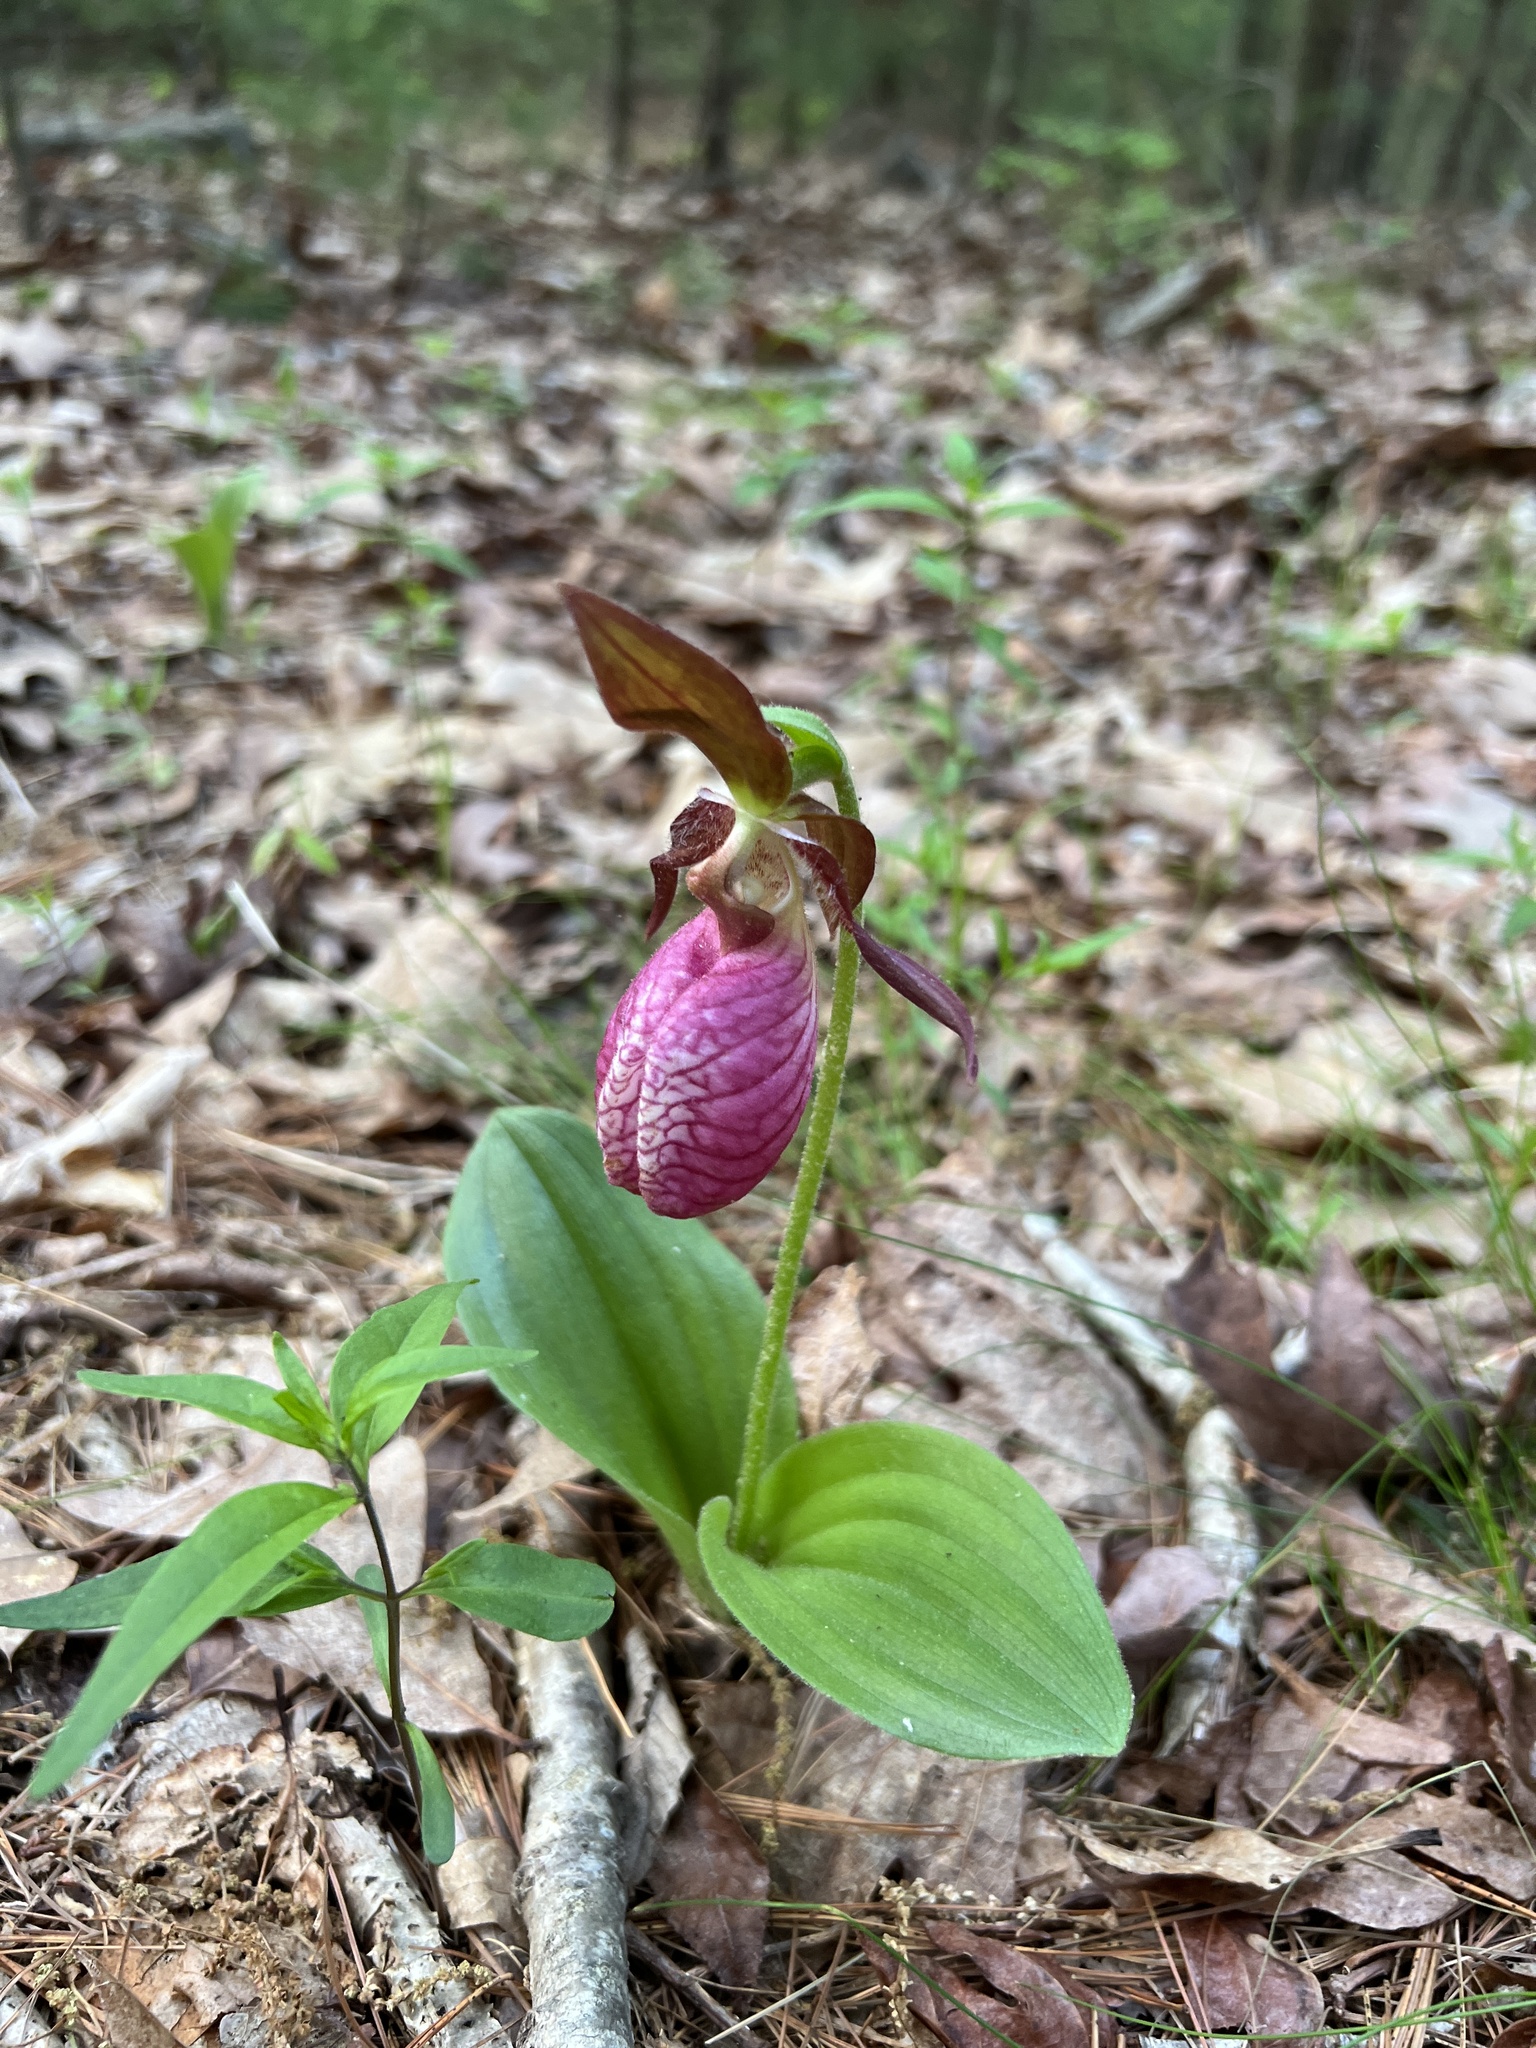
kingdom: Plantae
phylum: Tracheophyta
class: Liliopsida
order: Asparagales
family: Orchidaceae
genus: Cypripedium
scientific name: Cypripedium acaule
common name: Pink lady's-slipper
